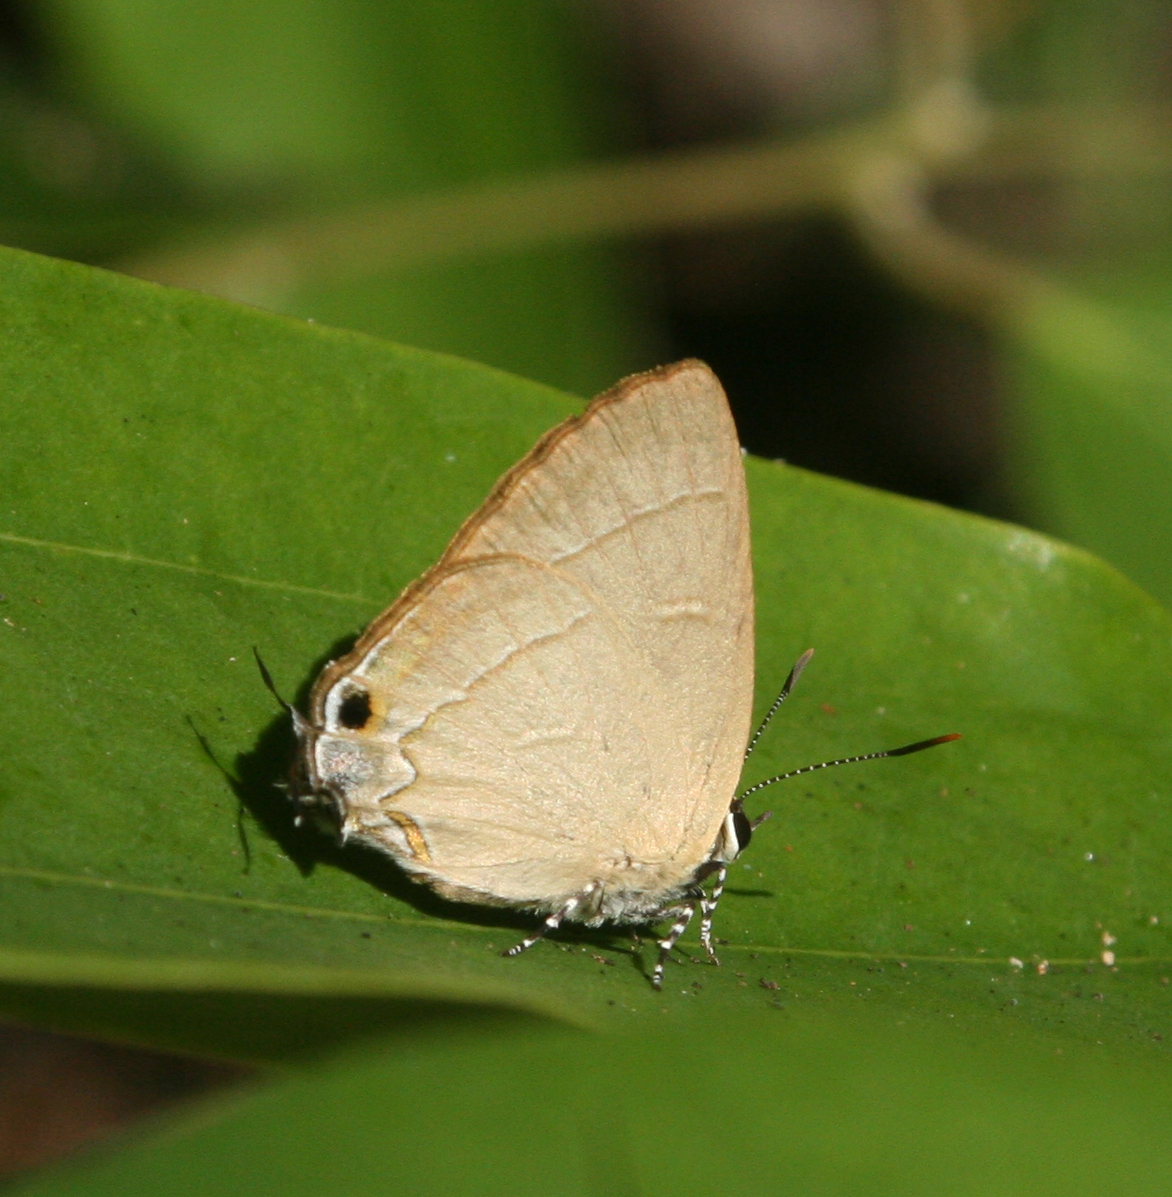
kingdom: Animalia
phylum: Arthropoda
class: Insecta
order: Lepidoptera
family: Lycaenidae
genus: Rapala
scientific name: Rapala dieneces
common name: Scarlet flash
